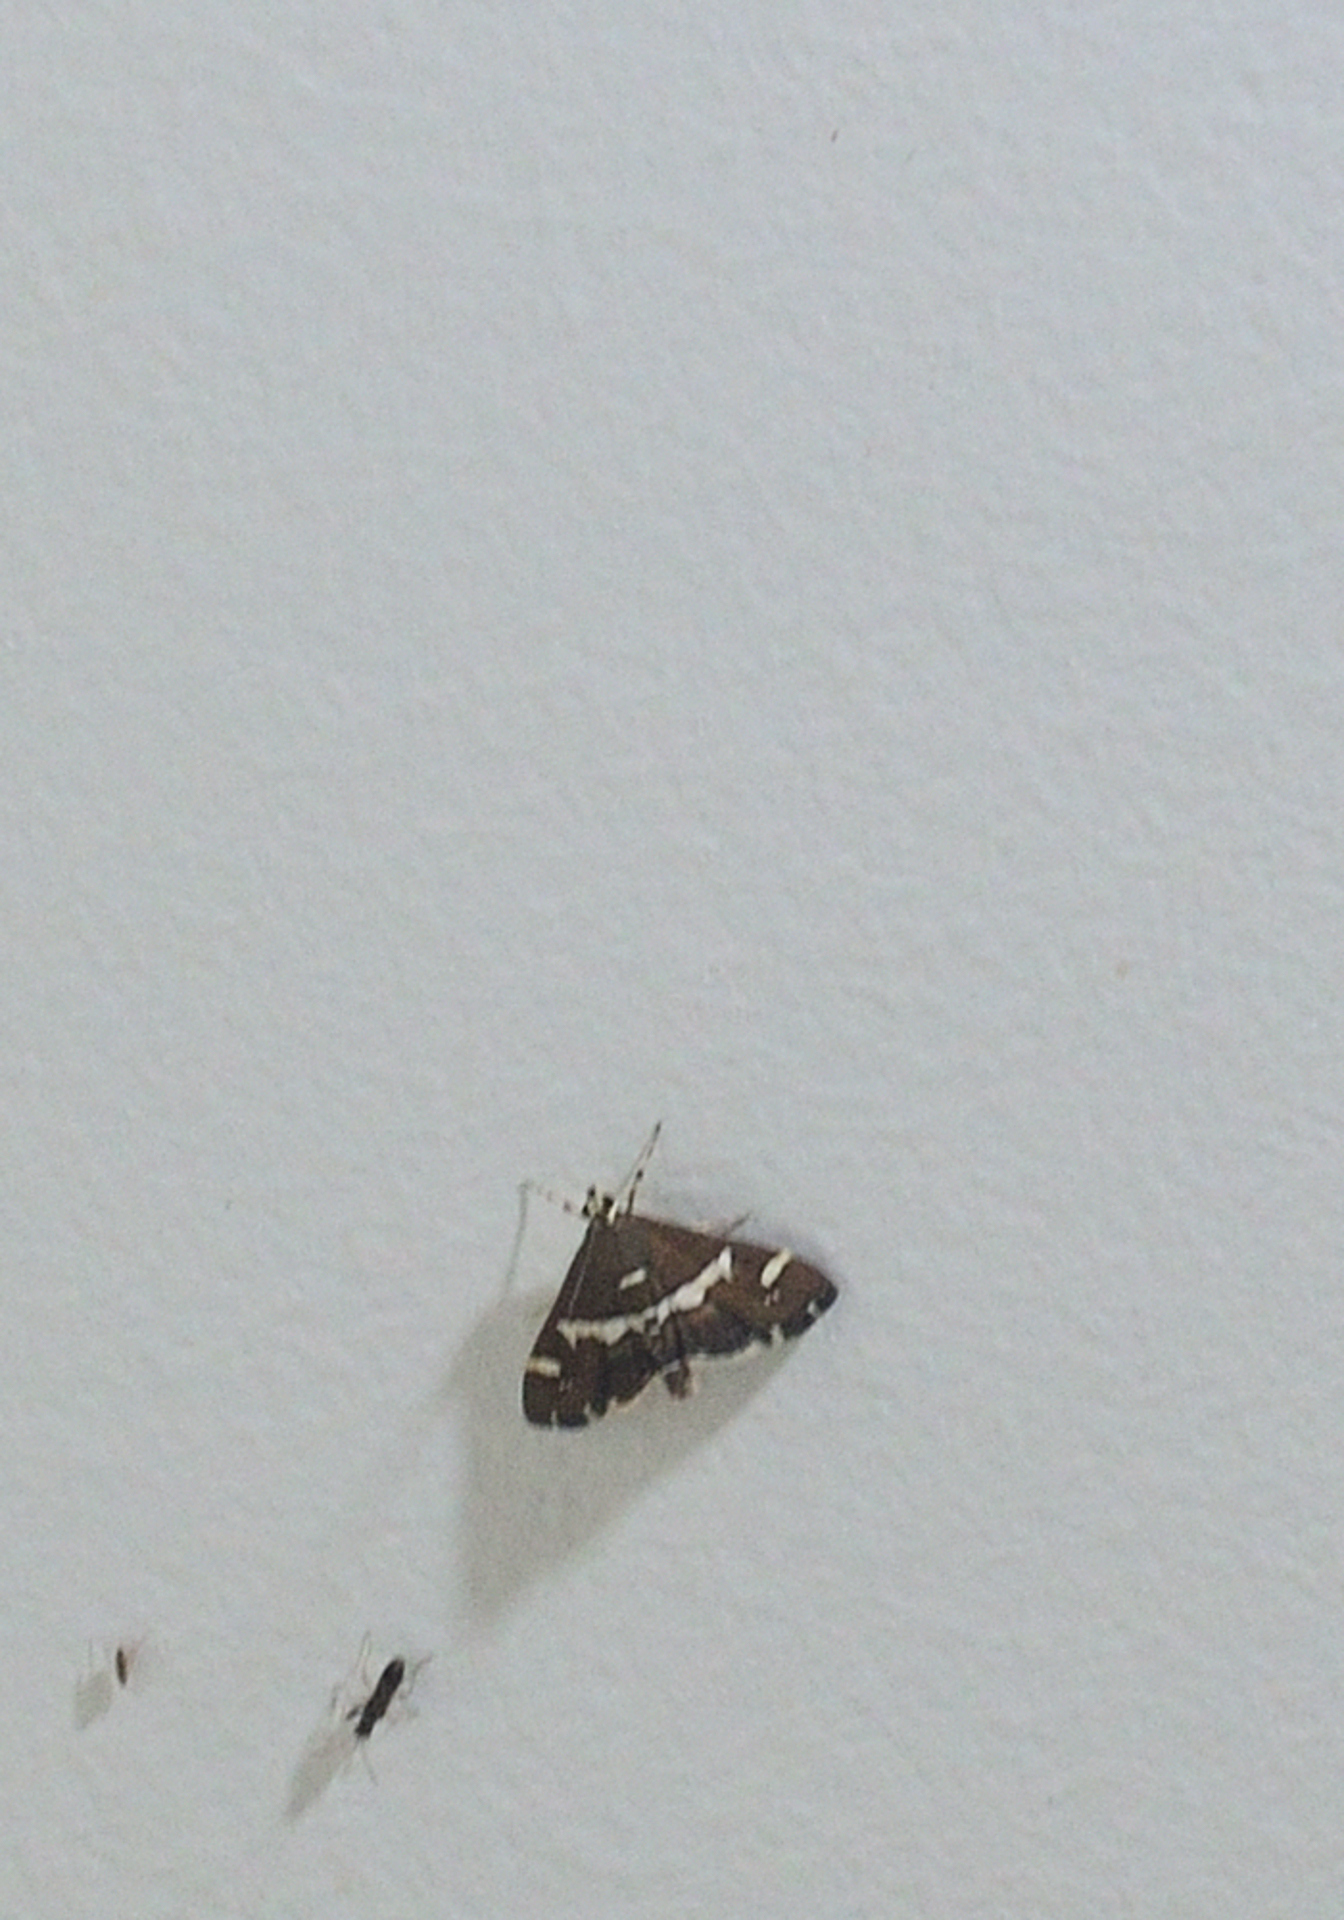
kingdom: Animalia
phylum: Arthropoda
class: Insecta
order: Lepidoptera
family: Crambidae
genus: Spoladea
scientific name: Spoladea recurvalis
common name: Beet webworm moth
